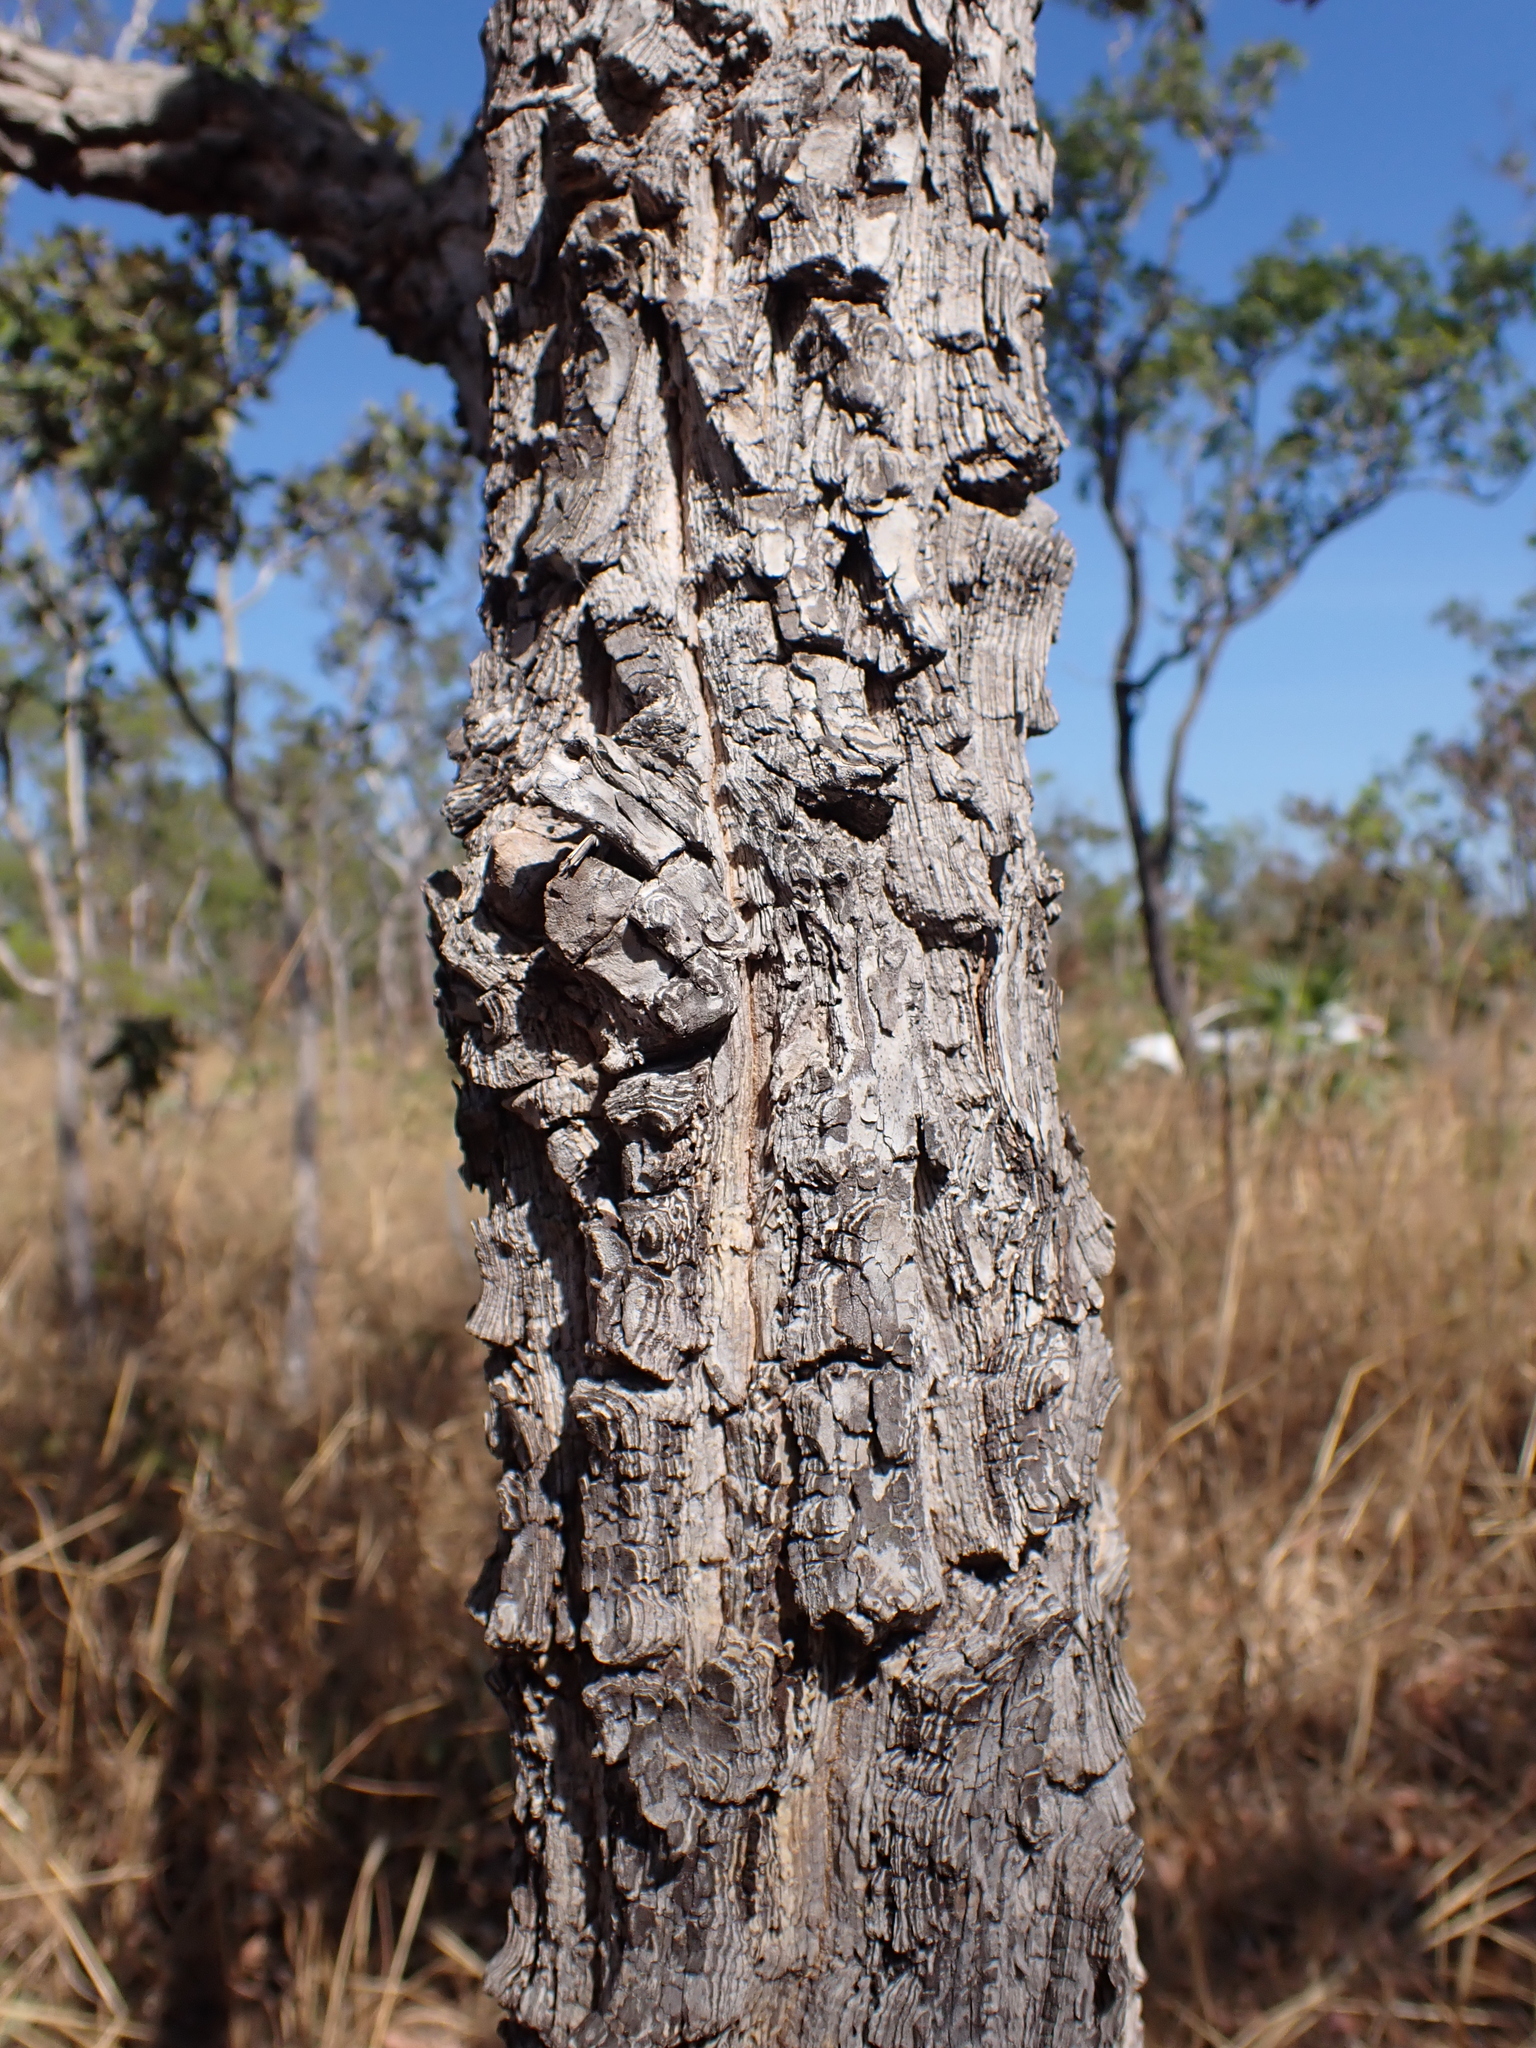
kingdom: Plantae
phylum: Tracheophyta
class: Magnoliopsida
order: Ericales
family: Lecythidaceae
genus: Planchonia
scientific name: Planchonia careya
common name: Cockatoo-apple
